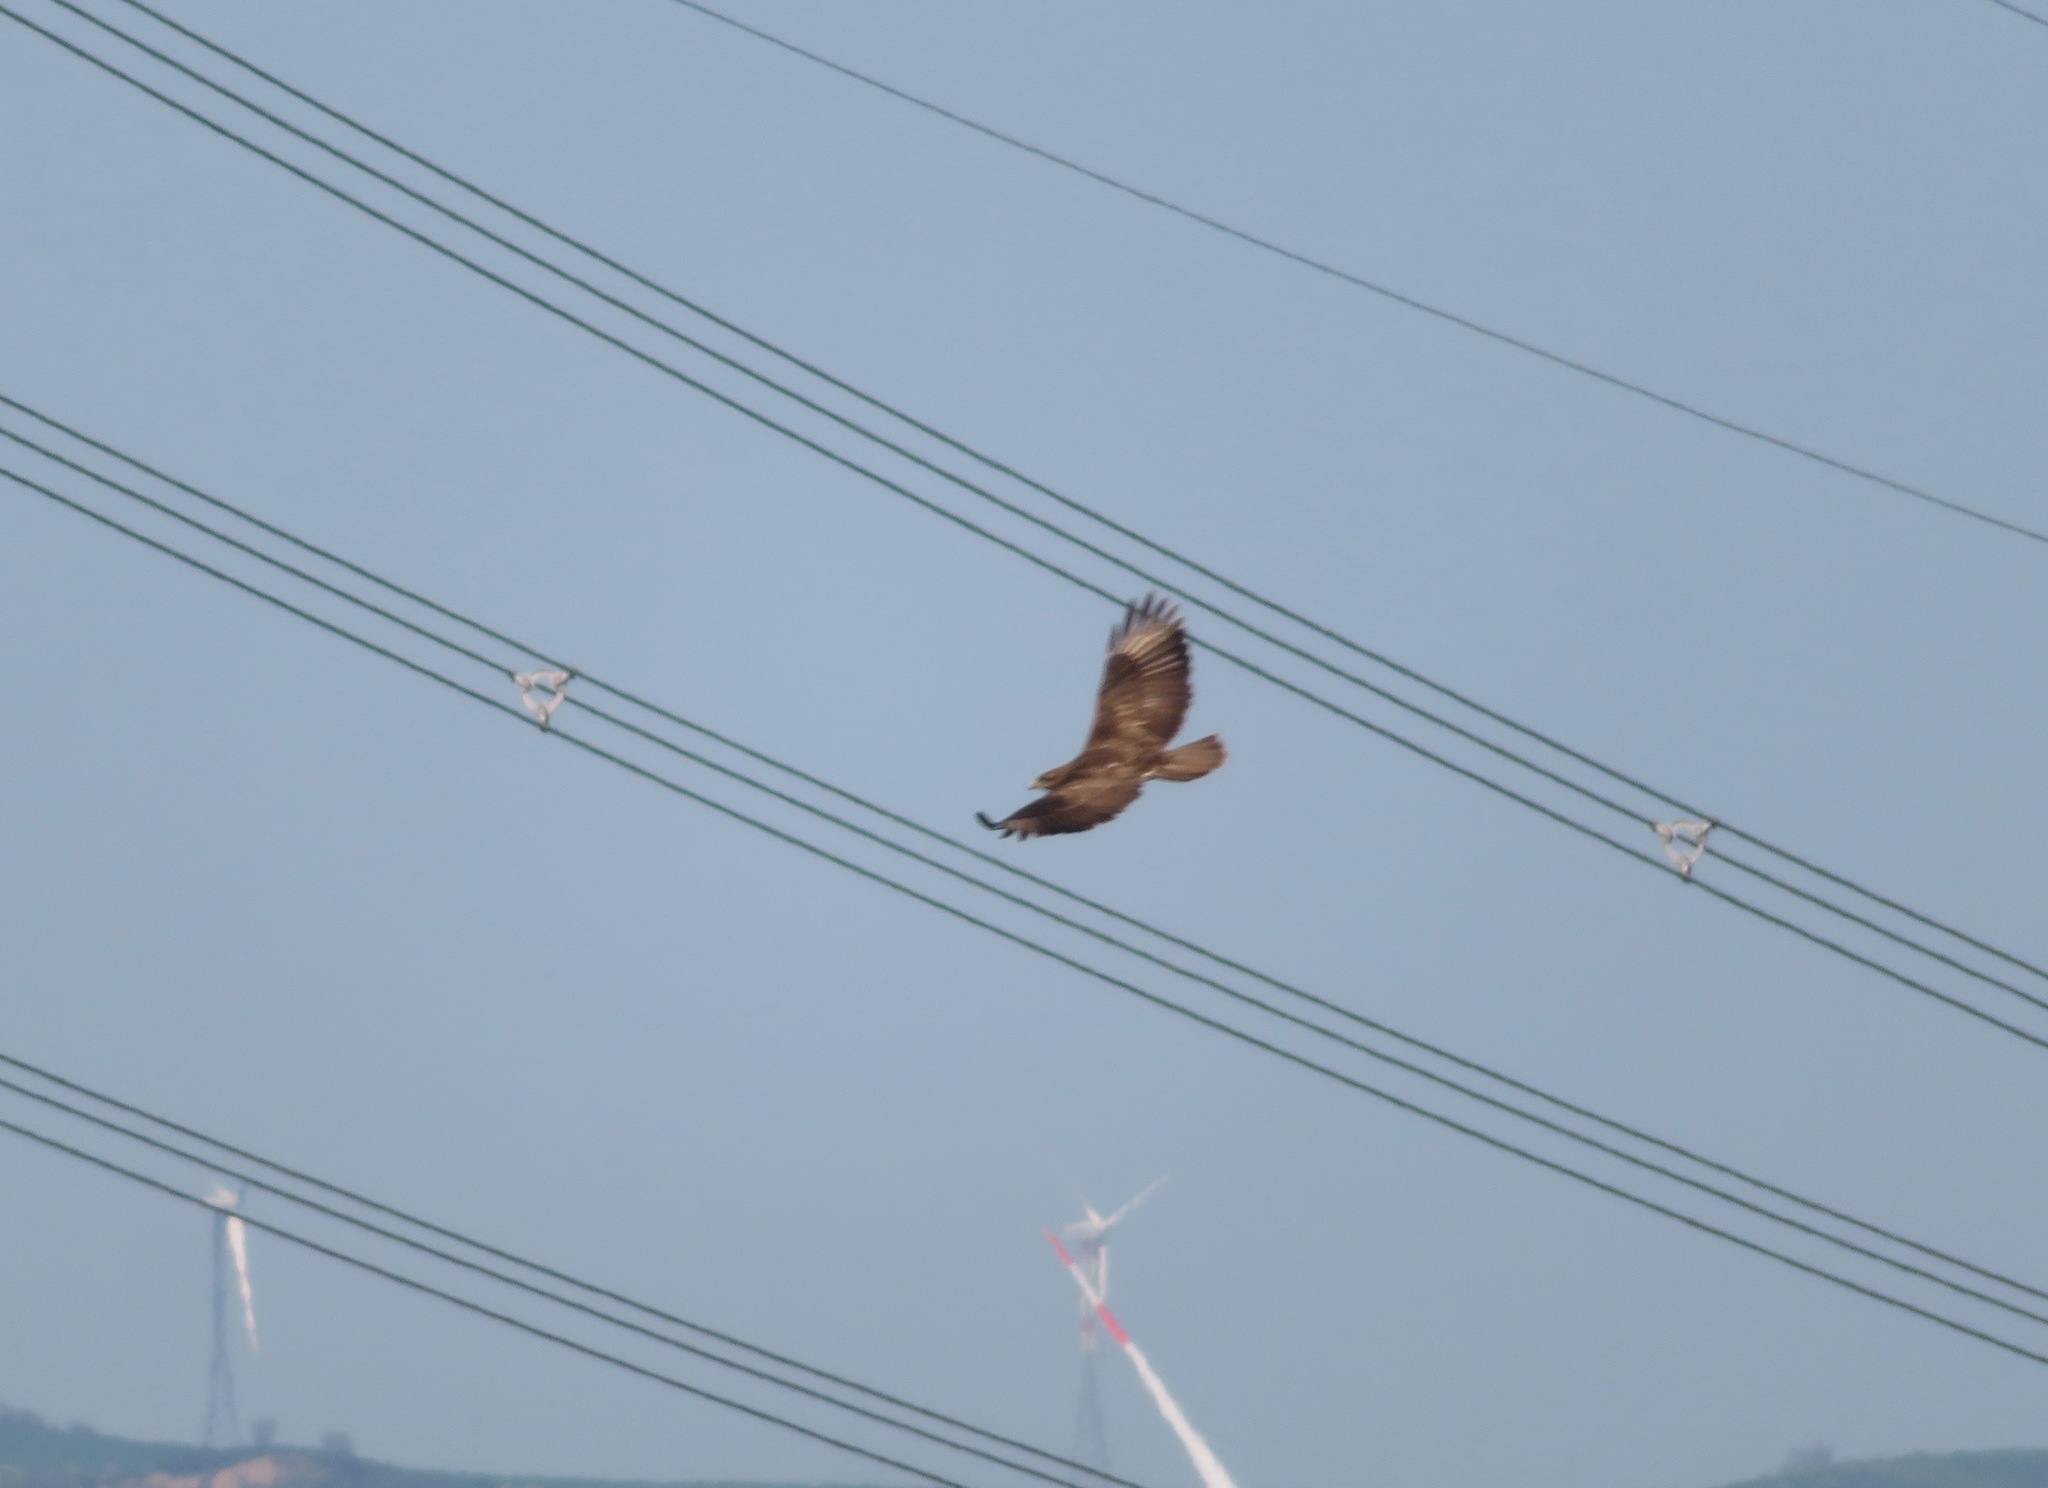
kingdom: Animalia
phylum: Chordata
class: Aves
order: Accipitriformes
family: Accipitridae
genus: Buteo
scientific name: Buteo buteo
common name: Common buzzard
